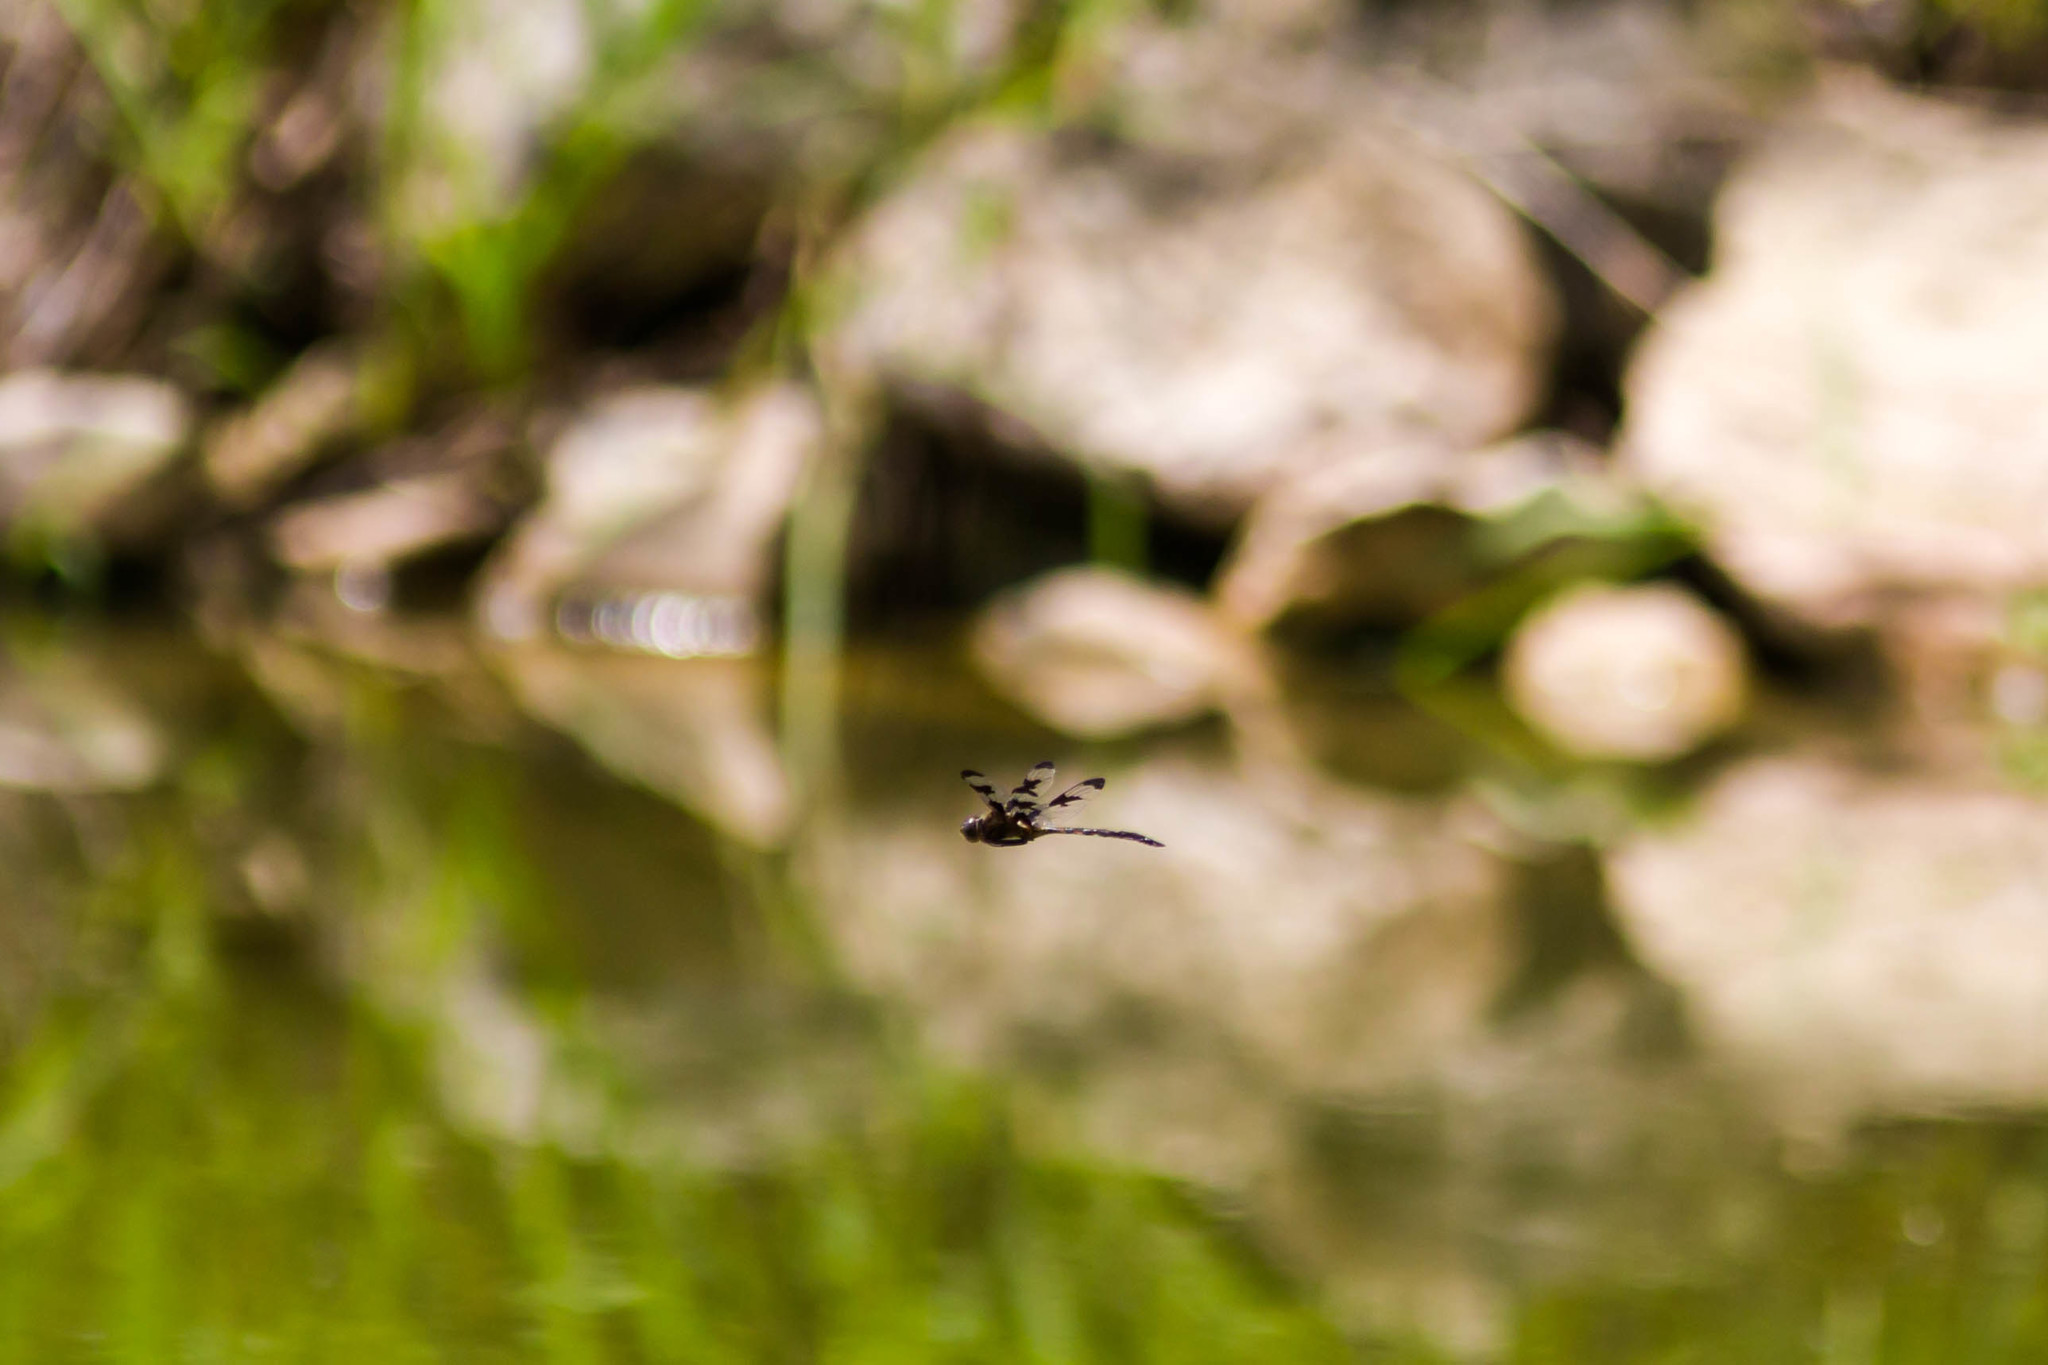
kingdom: Animalia
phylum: Arthropoda
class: Insecta
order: Odonata
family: Corduliidae
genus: Epitheca
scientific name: Epitheca princeps
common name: Prince baskettail
